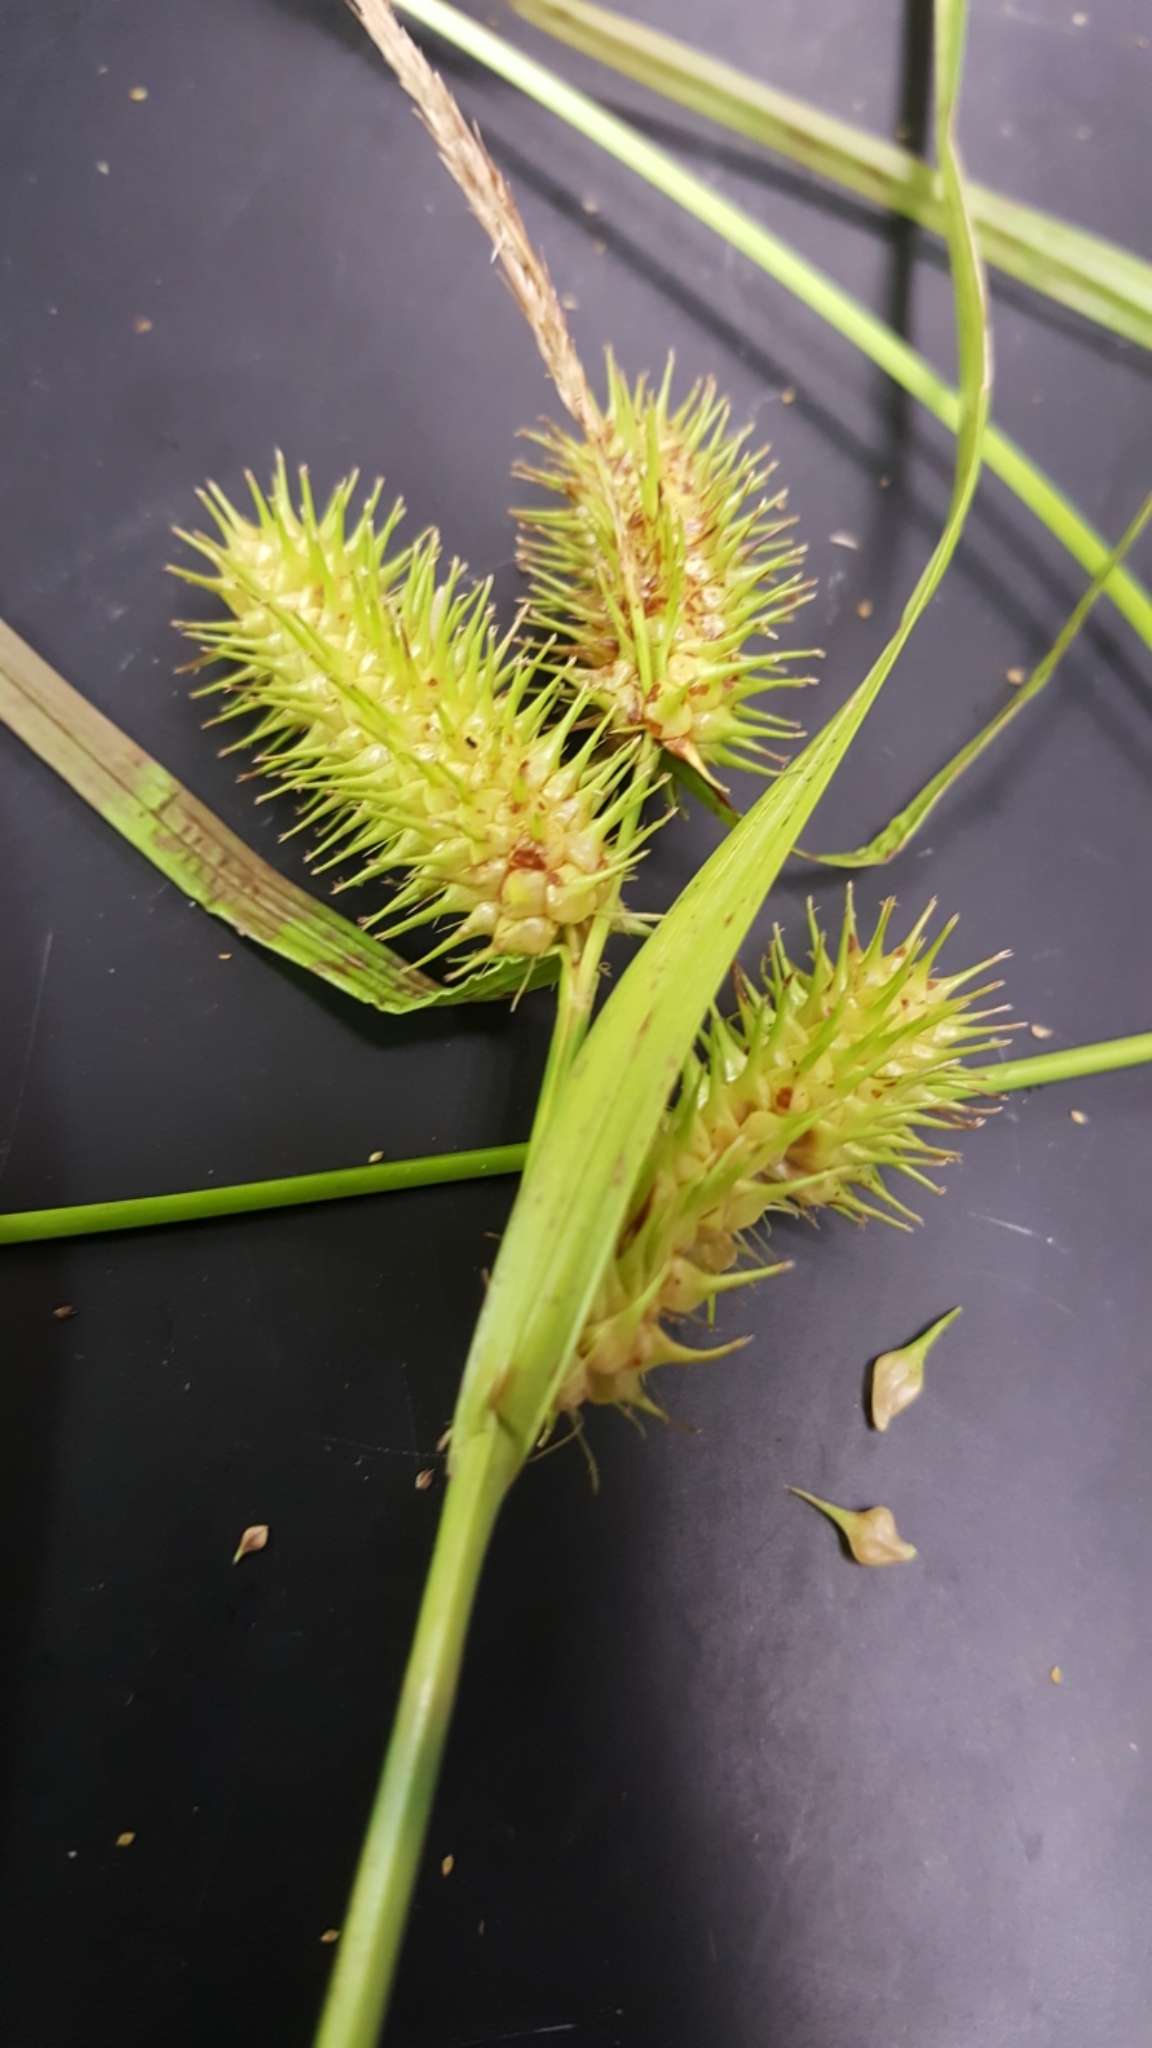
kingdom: Plantae
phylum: Tracheophyta
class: Liliopsida
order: Poales
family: Cyperaceae
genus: Carex
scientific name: Carex lurida
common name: Sallow sedge
